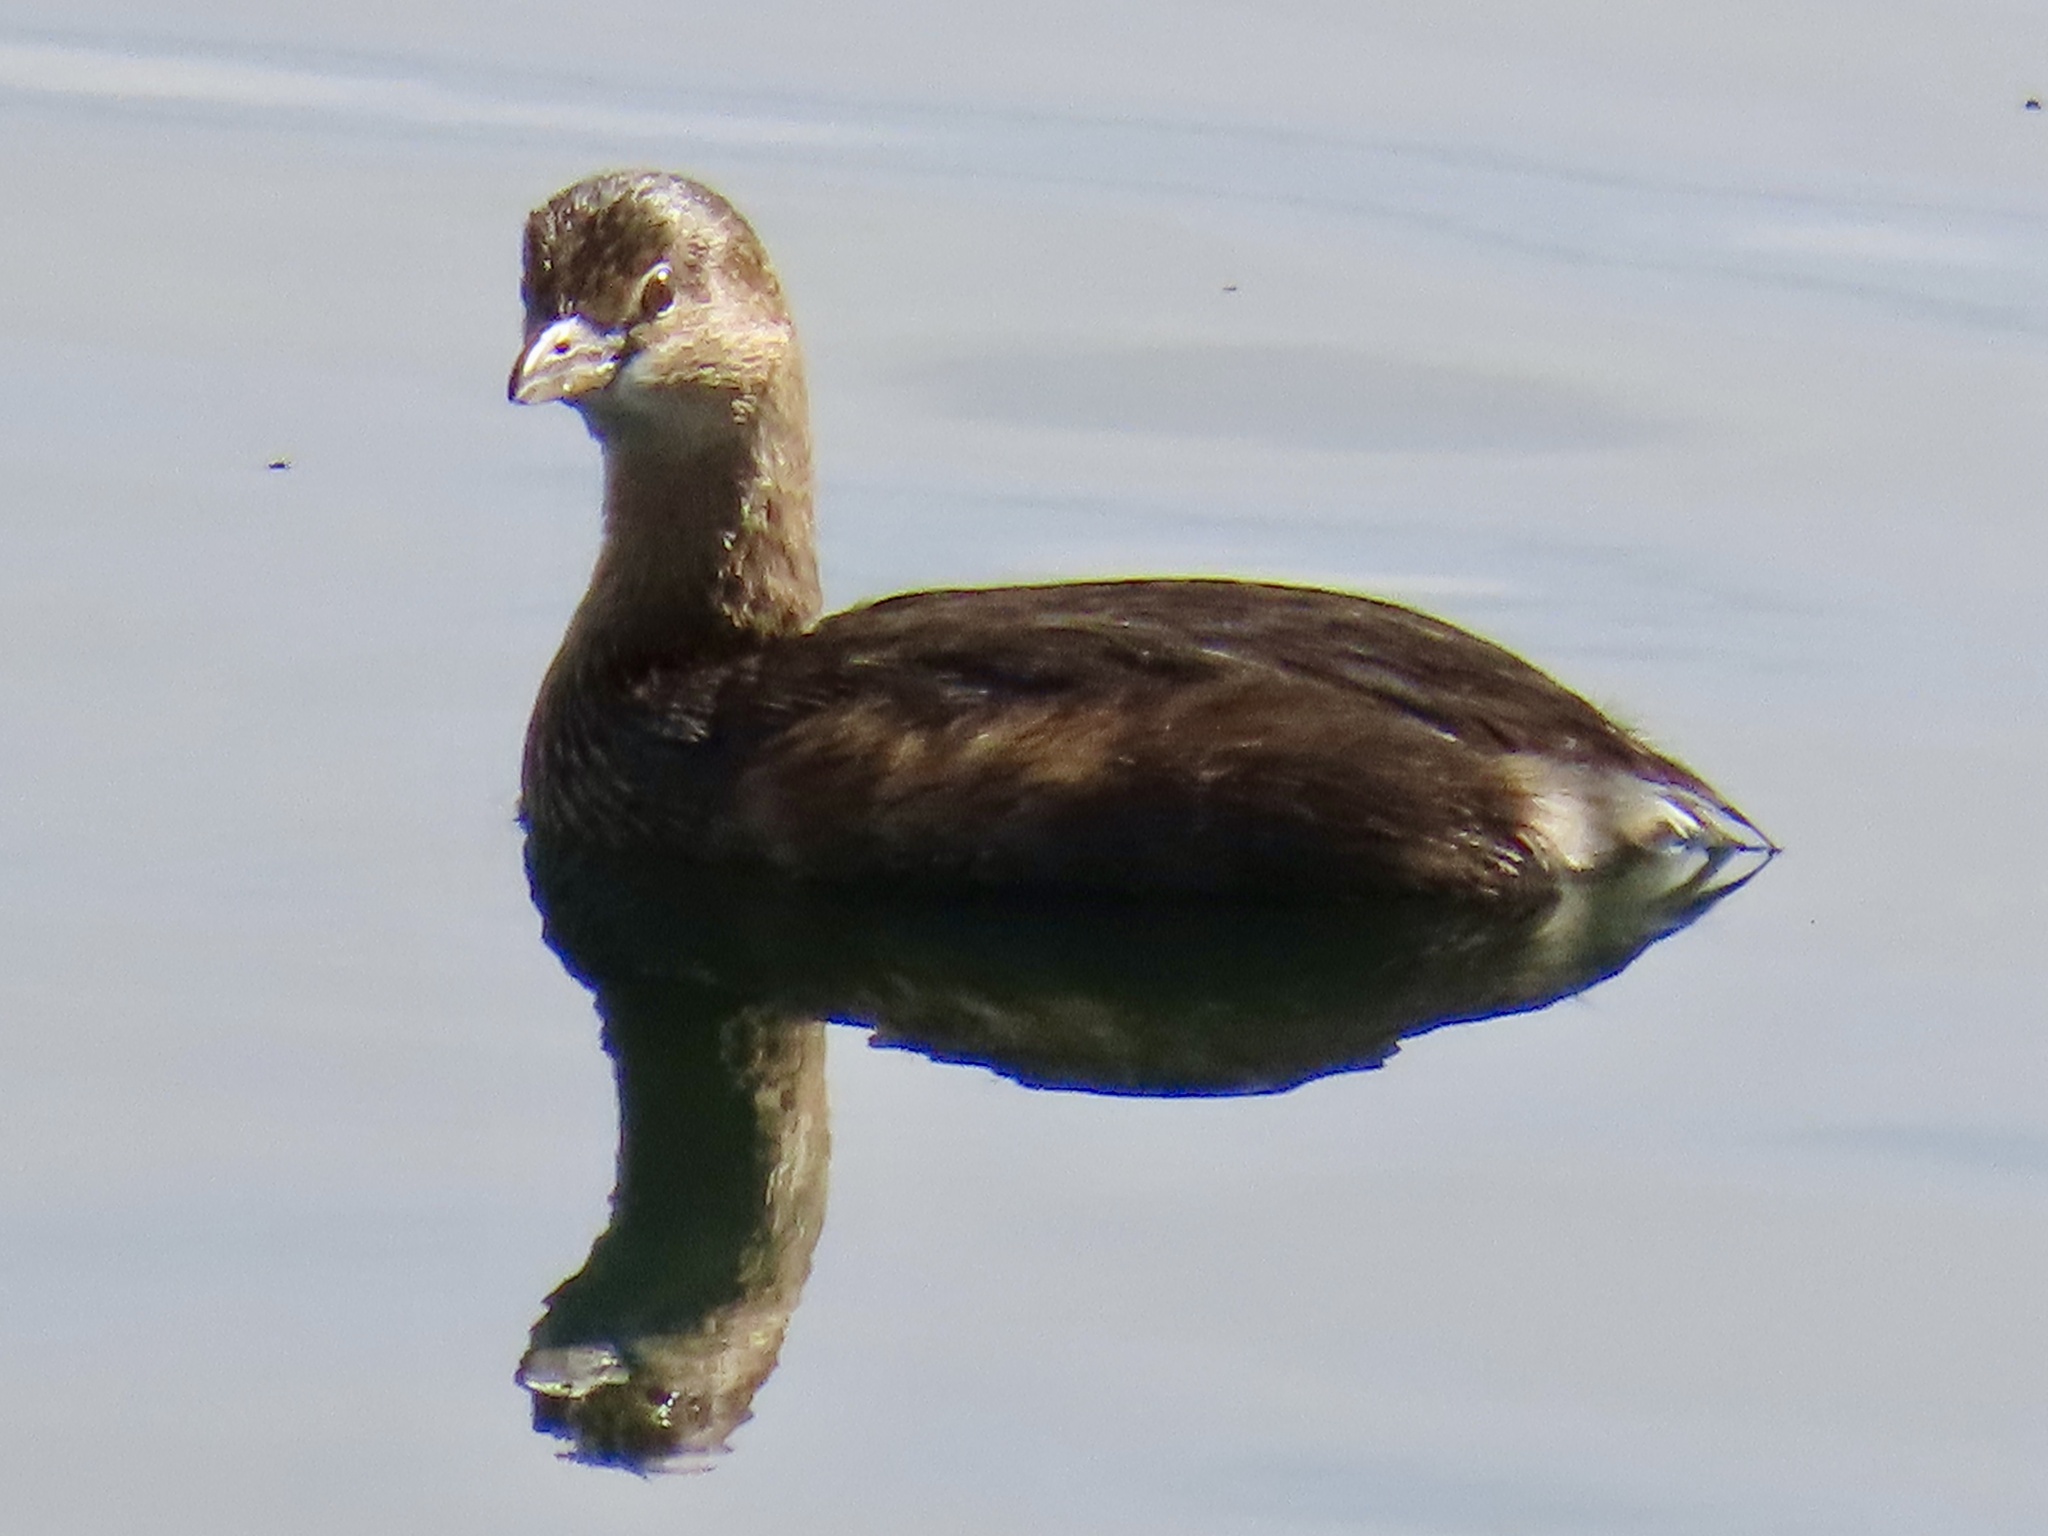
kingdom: Animalia
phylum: Chordata
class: Aves
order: Podicipediformes
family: Podicipedidae
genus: Podilymbus
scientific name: Podilymbus podiceps
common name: Pied-billed grebe
